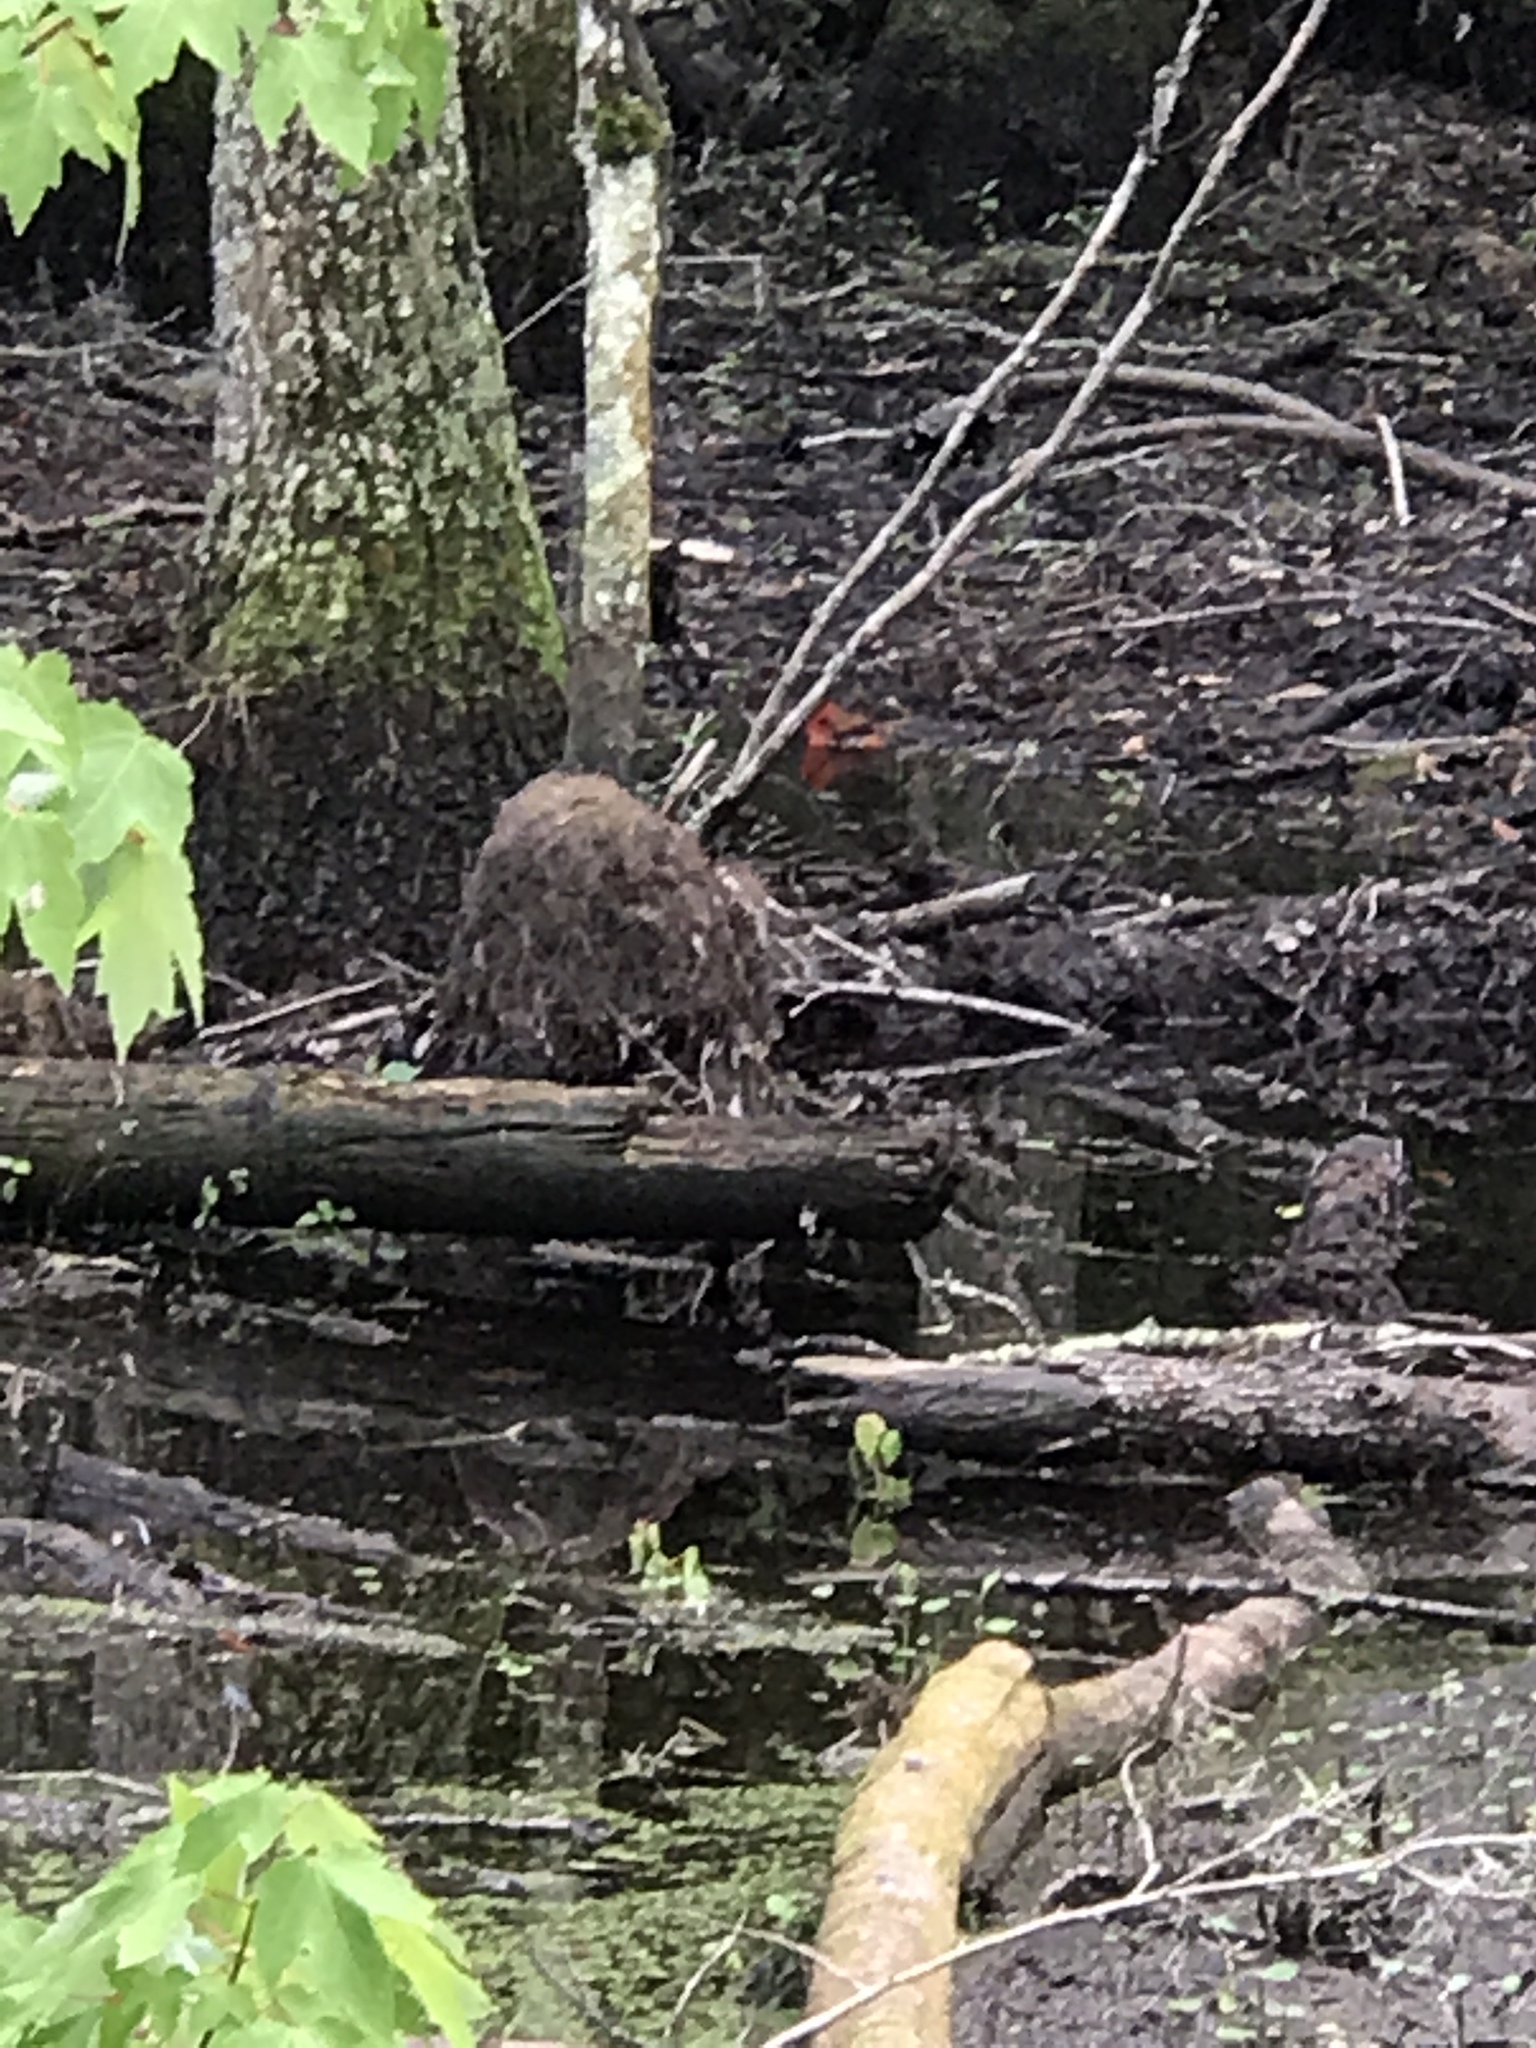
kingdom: Animalia
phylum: Chordata
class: Aves
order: Passeriformes
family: Cardinalidae
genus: Cardinalis
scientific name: Cardinalis cardinalis
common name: Northern cardinal
